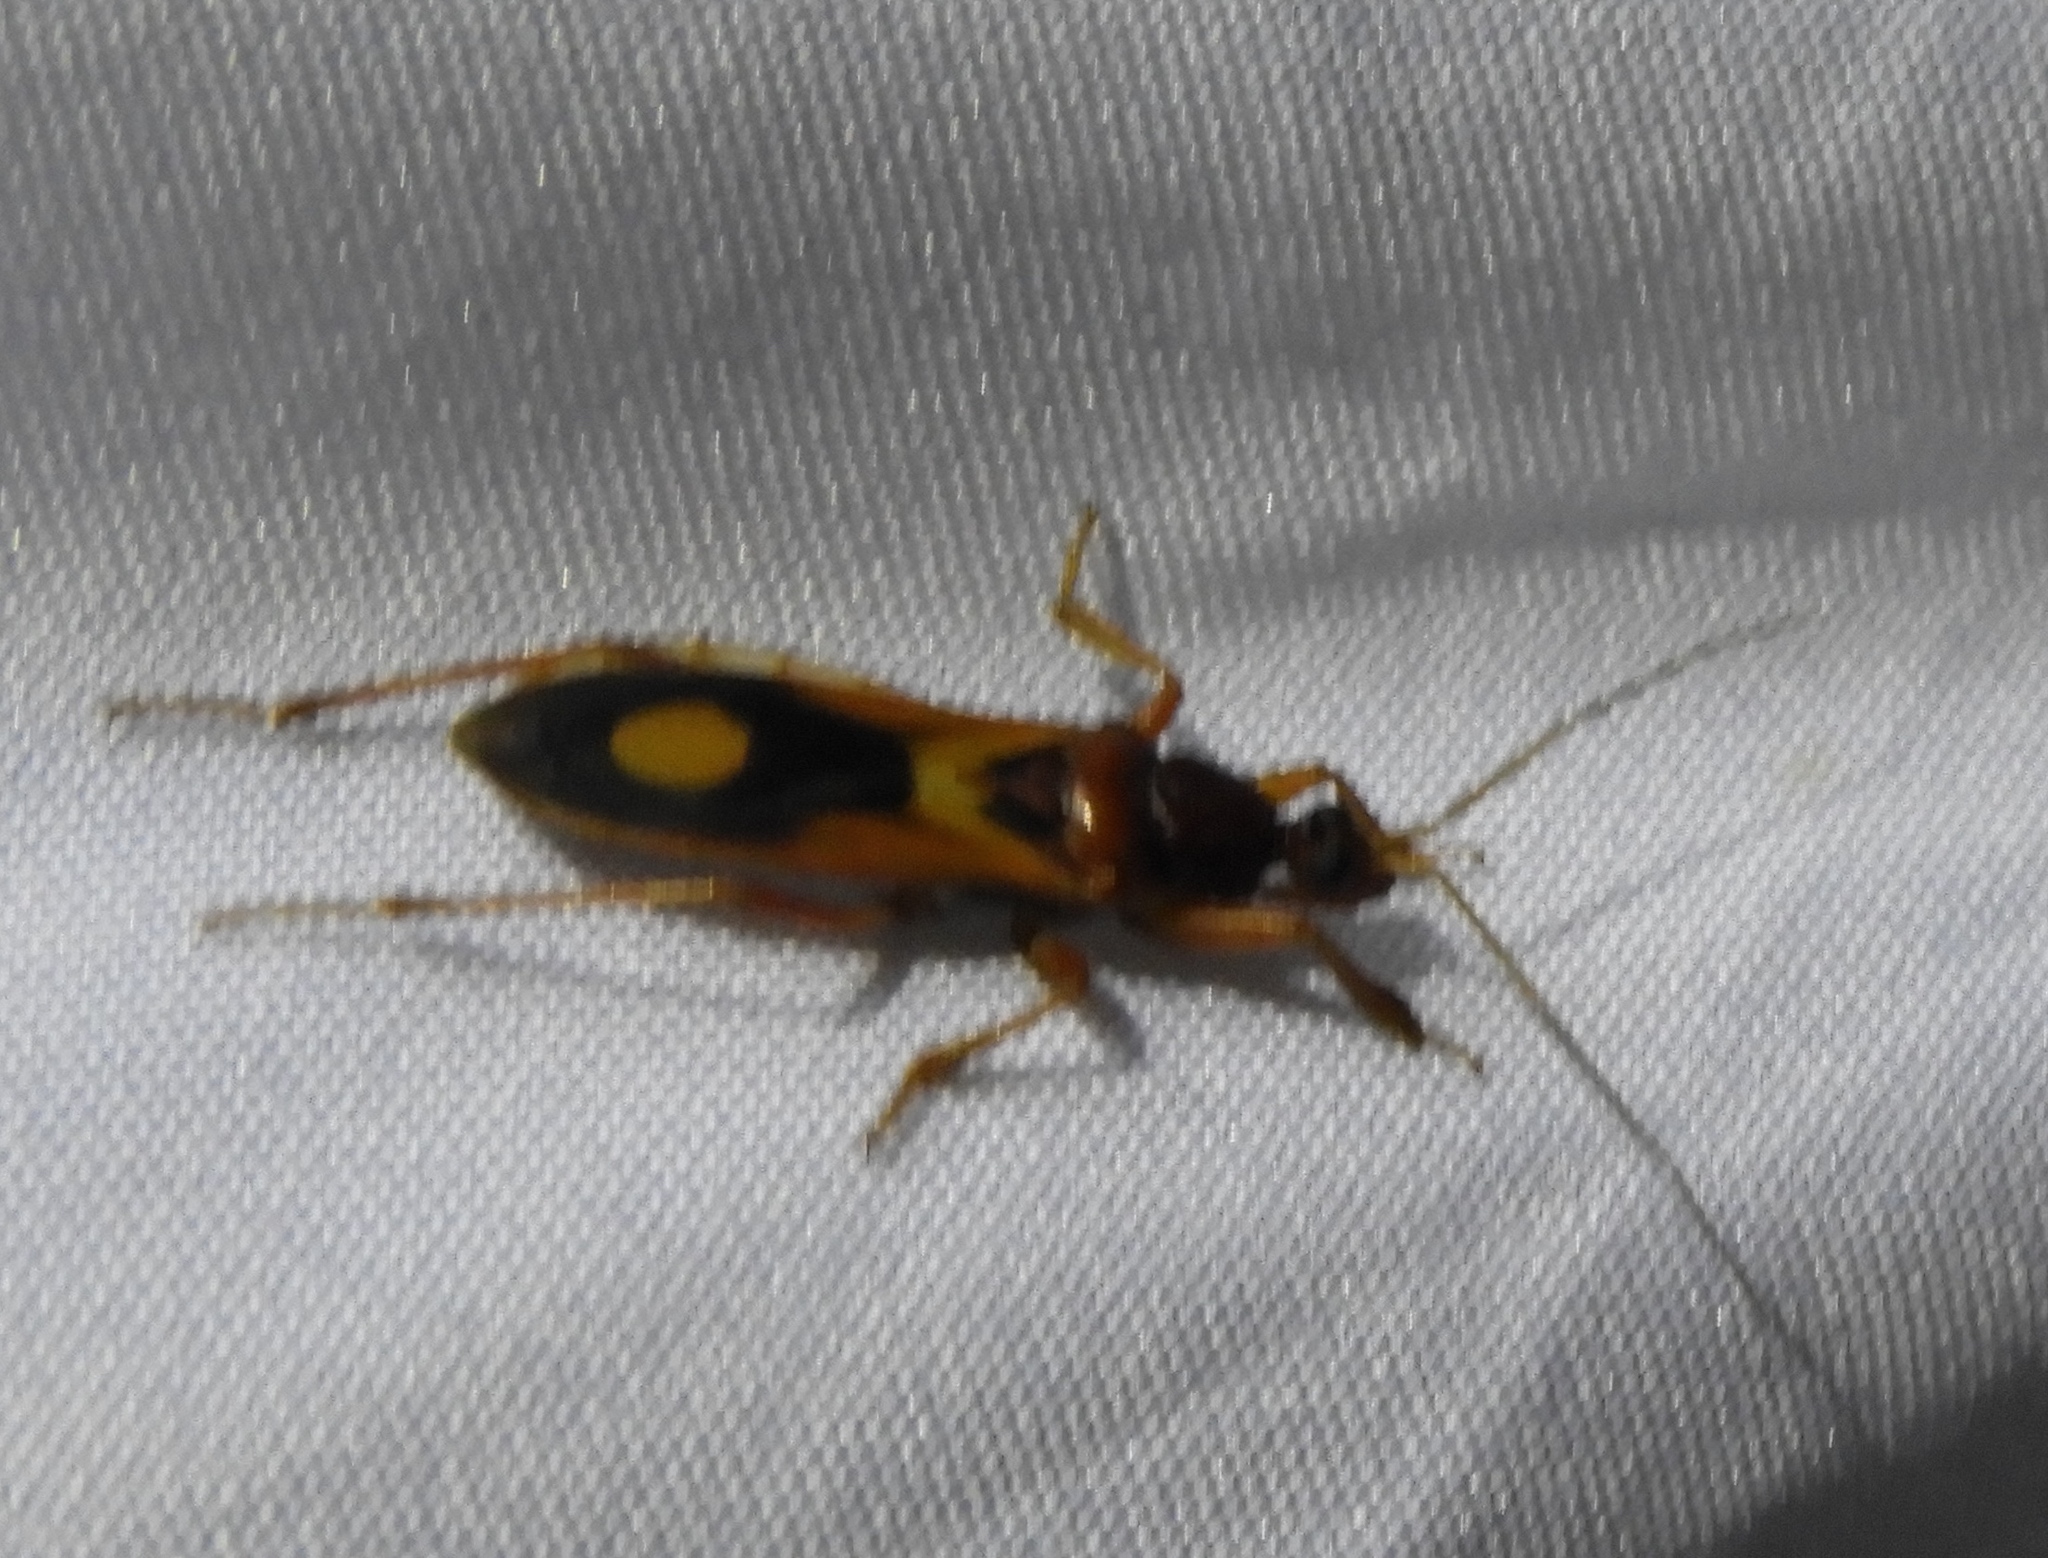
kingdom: Animalia
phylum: Arthropoda
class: Insecta
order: Hemiptera
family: Reduviidae
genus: Rasahus
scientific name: Rasahus thoracicus
